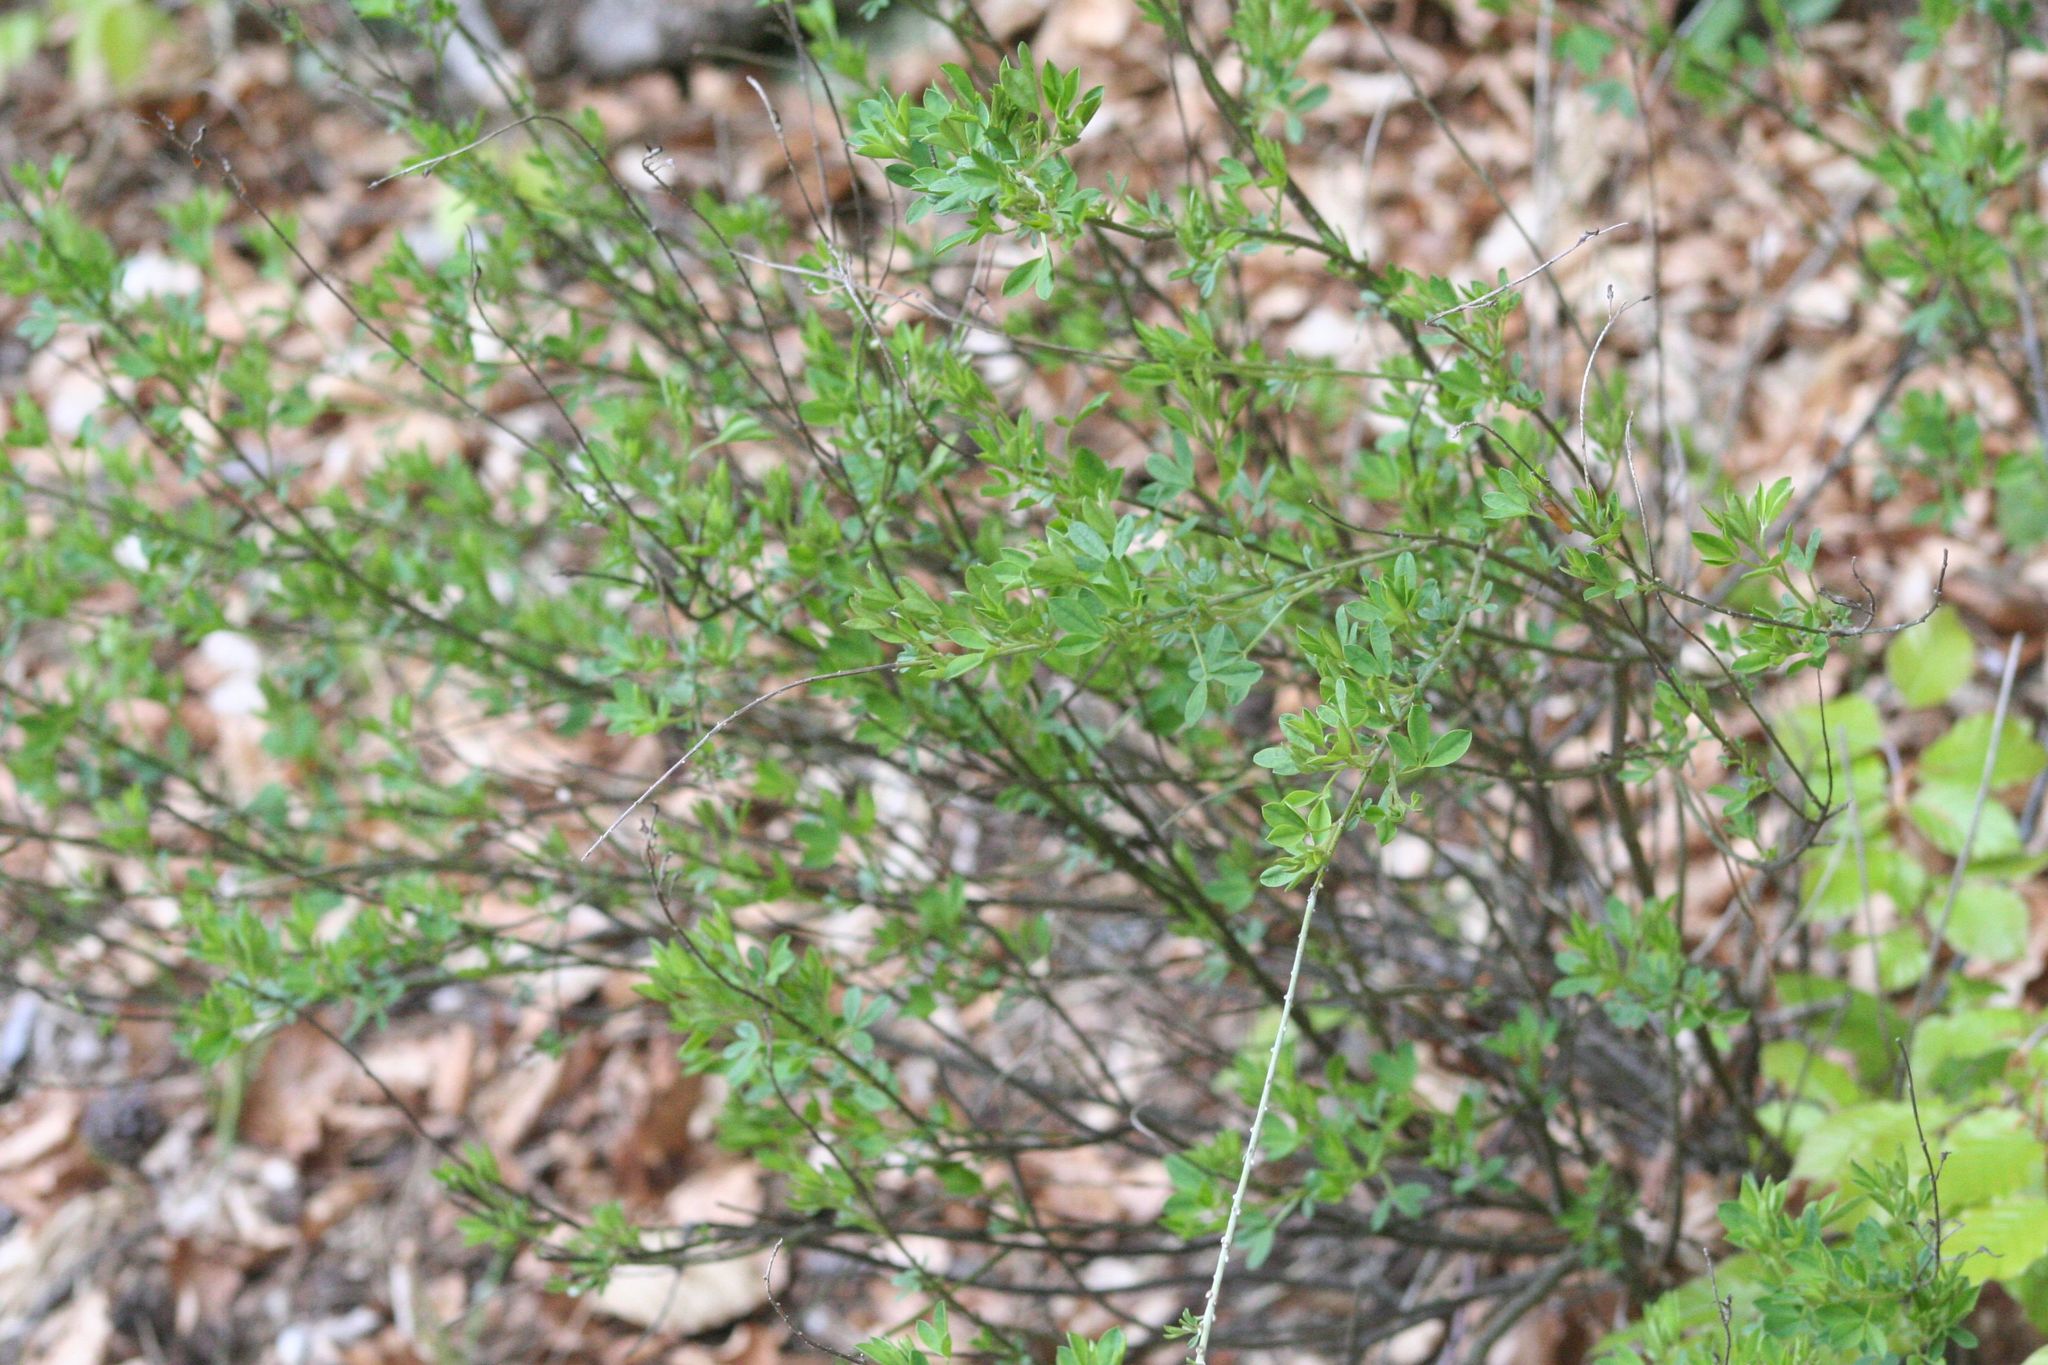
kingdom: Plantae
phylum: Tracheophyta
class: Magnoliopsida
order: Fabales
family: Fabaceae
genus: Cytisus
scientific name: Cytisus nigricans
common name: Black broom
